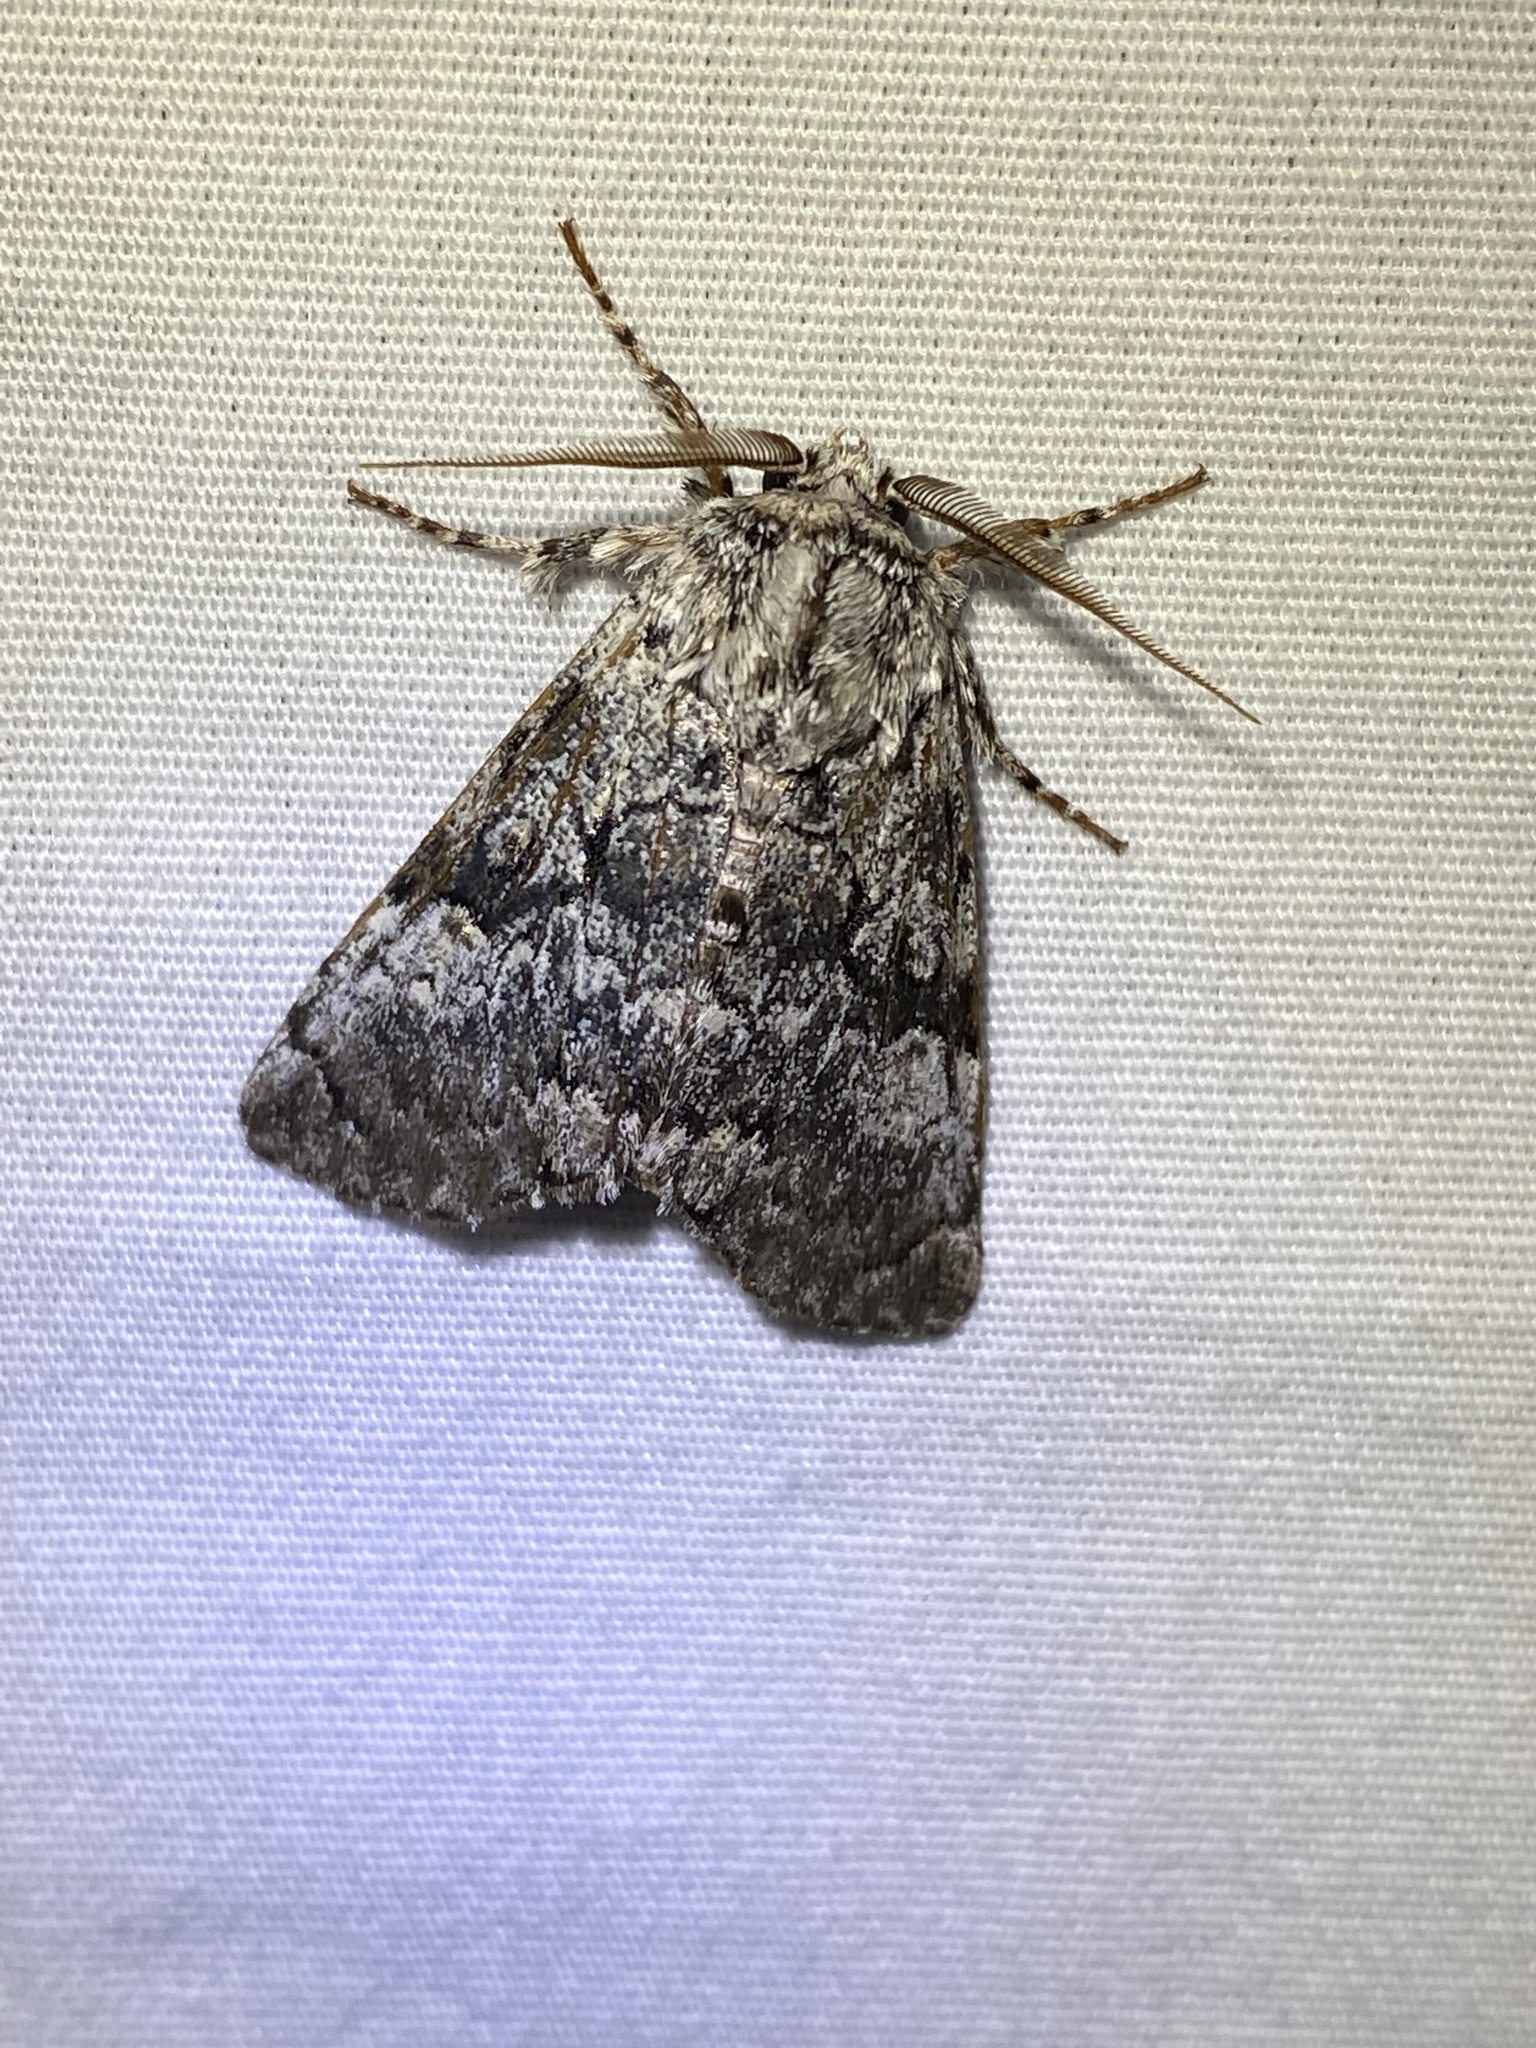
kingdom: Animalia
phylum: Arthropoda
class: Insecta
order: Lepidoptera
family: Noctuidae
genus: Charadra
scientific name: Charadra deridens
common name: Marbled tuffet
